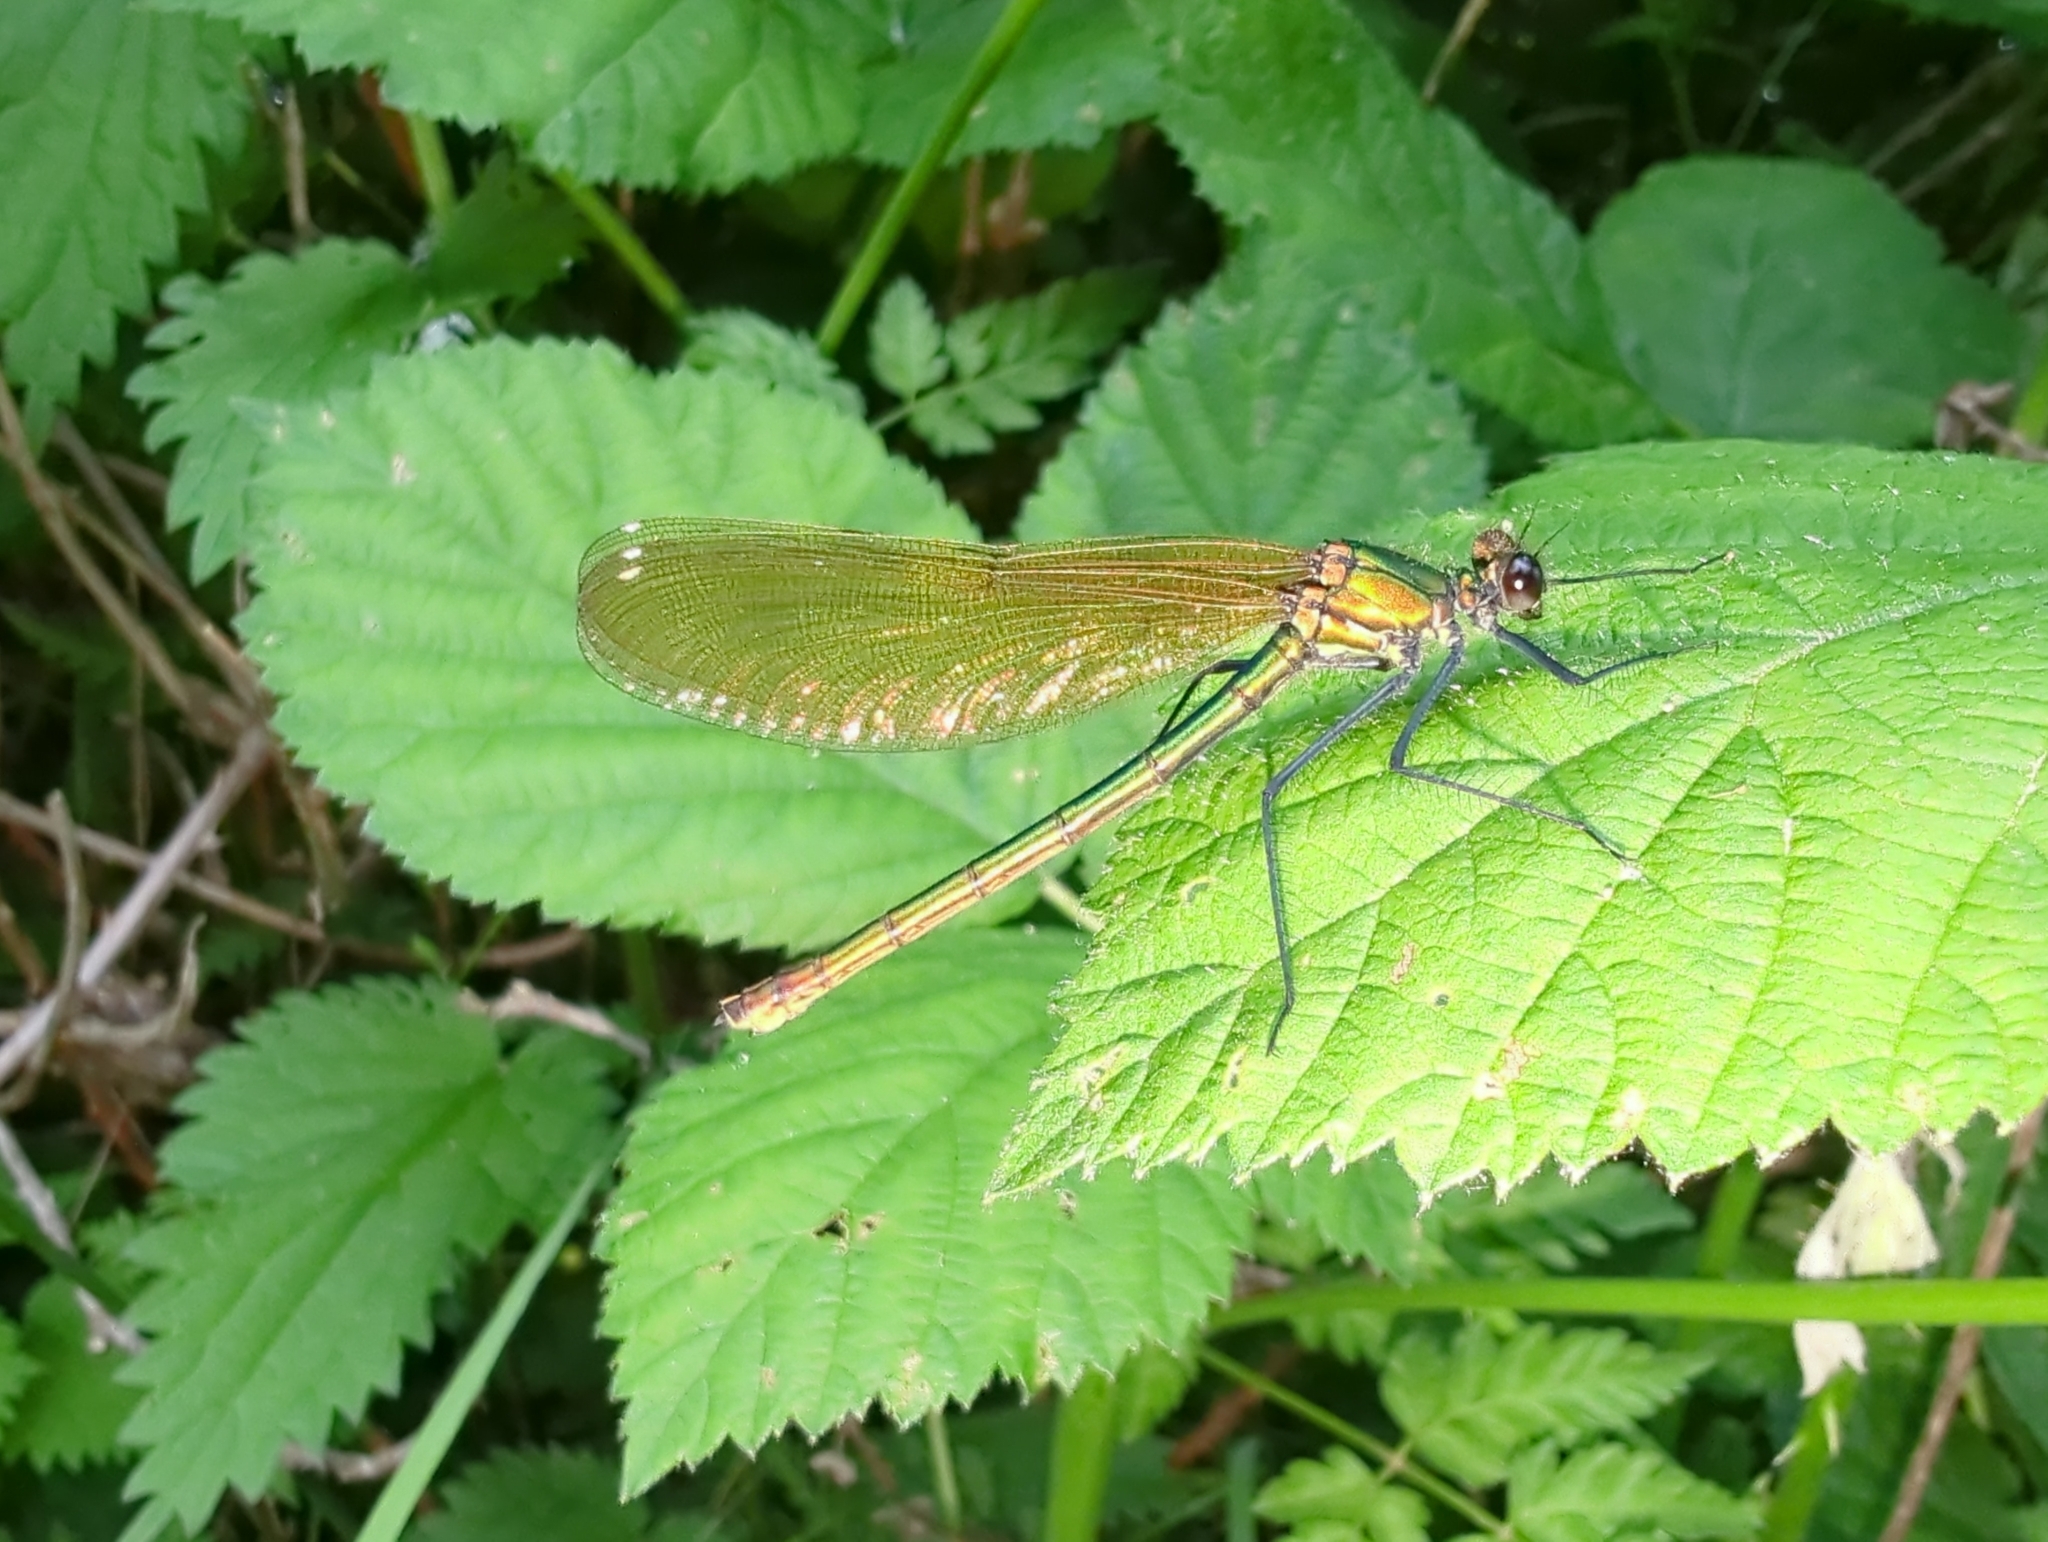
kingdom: Animalia
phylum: Arthropoda
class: Insecta
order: Odonata
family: Calopterygidae
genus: Calopteryx
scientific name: Calopteryx splendens
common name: Banded demoiselle
